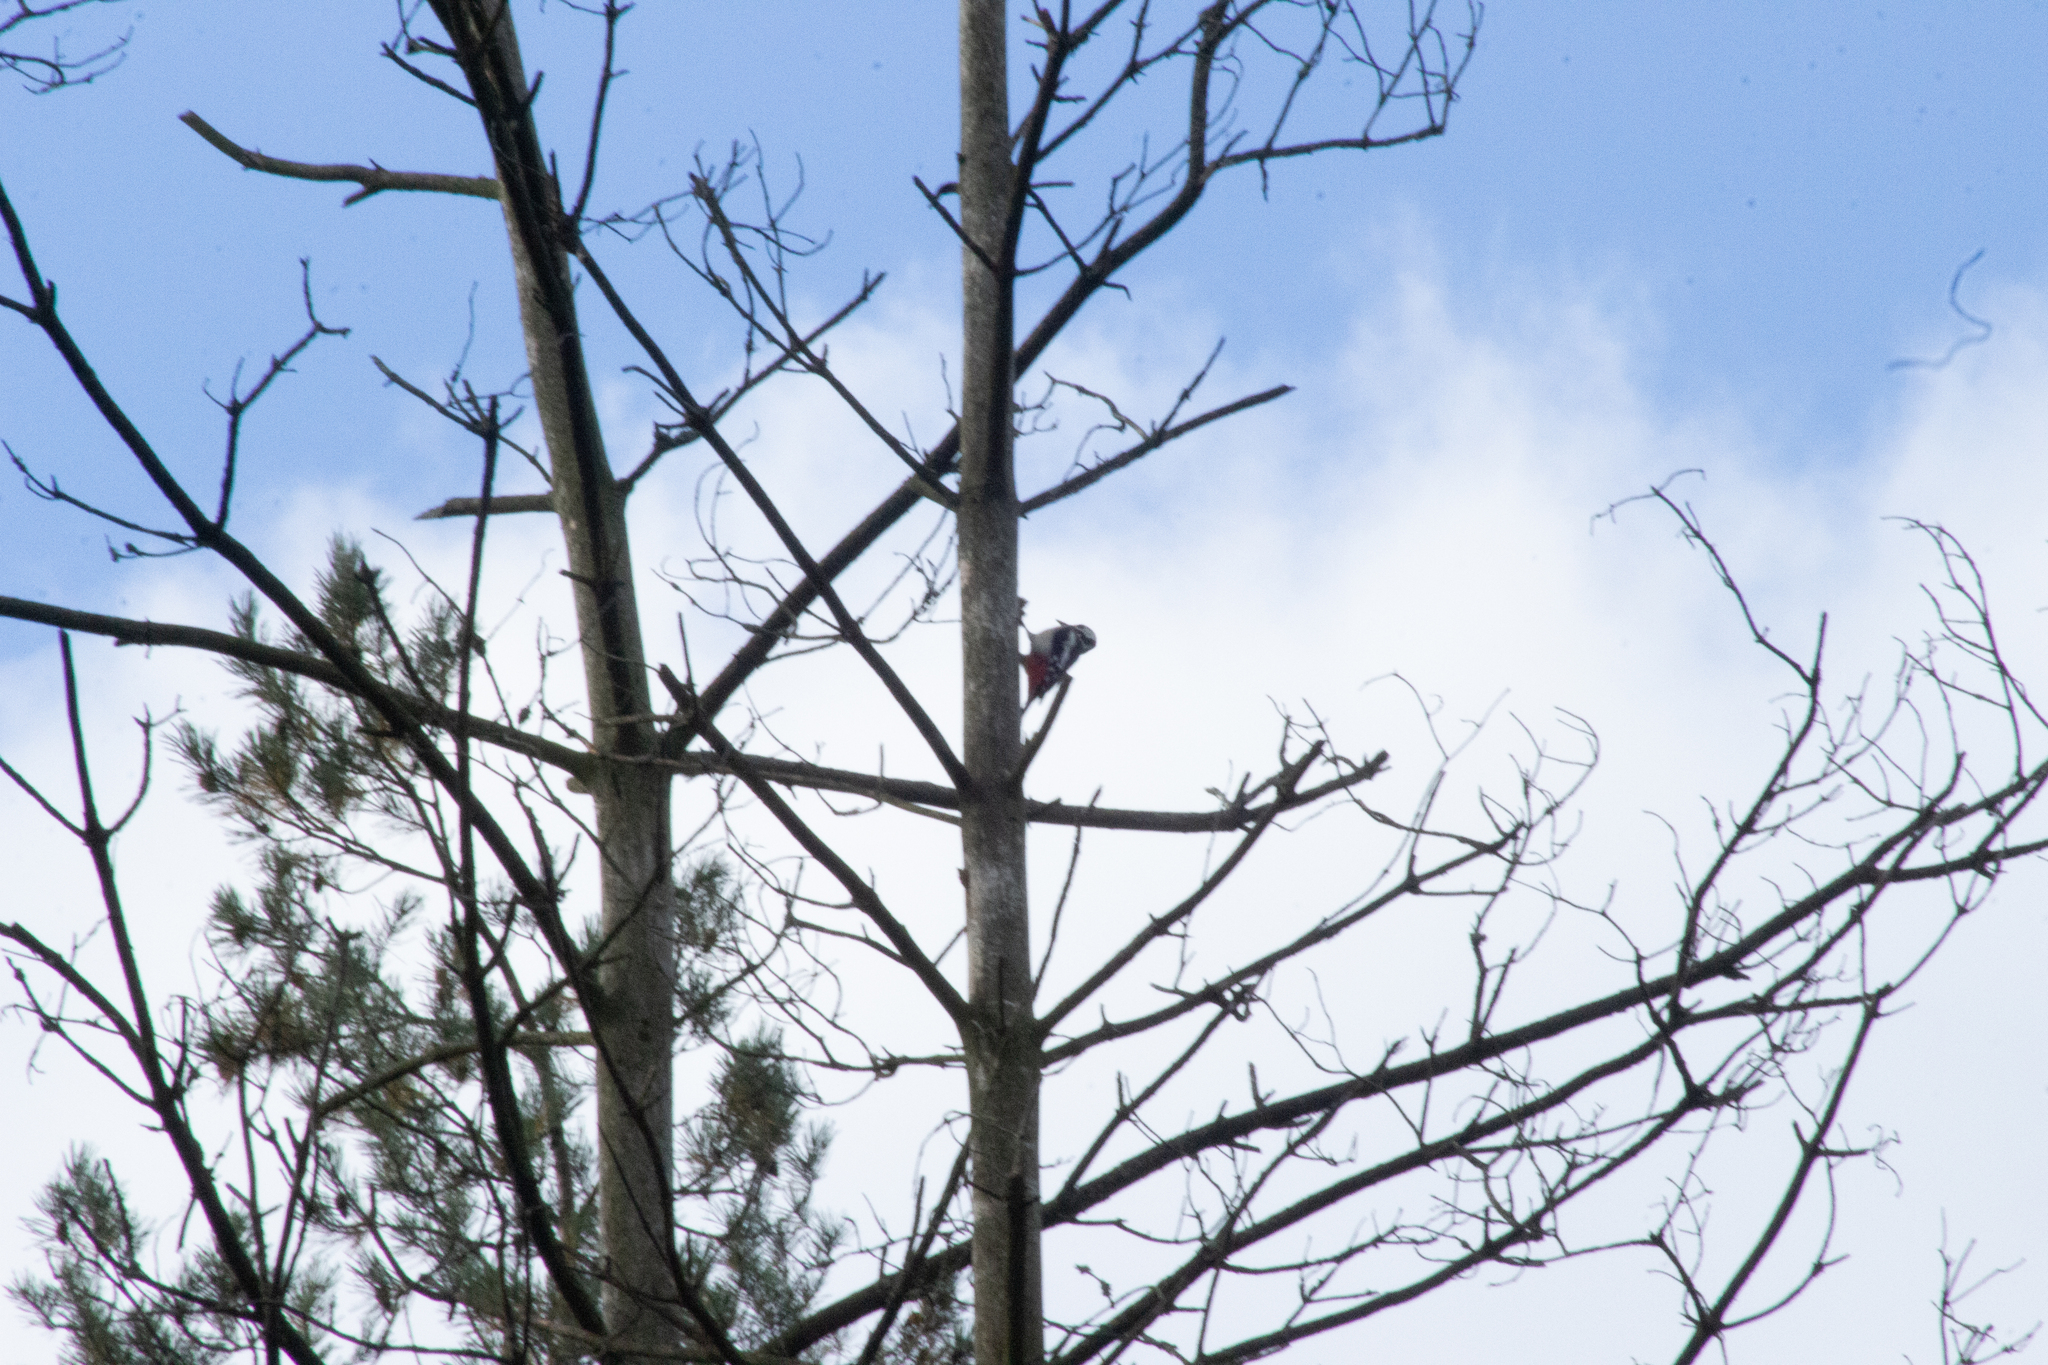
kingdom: Animalia
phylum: Chordata
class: Aves
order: Piciformes
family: Picidae
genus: Dendrocopos
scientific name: Dendrocopos major
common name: Great spotted woodpecker
